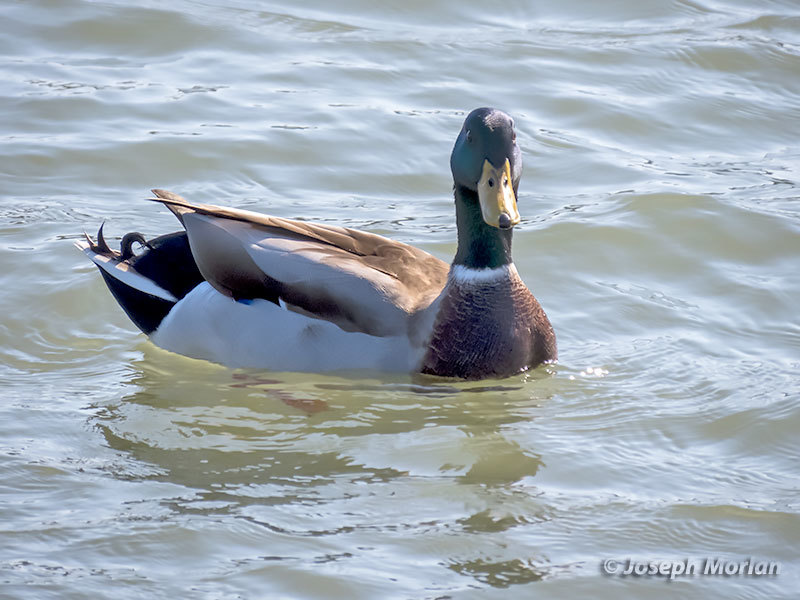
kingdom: Animalia
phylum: Chordata
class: Aves
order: Anseriformes
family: Anatidae
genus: Anas
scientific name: Anas platyrhynchos
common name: Mallard
